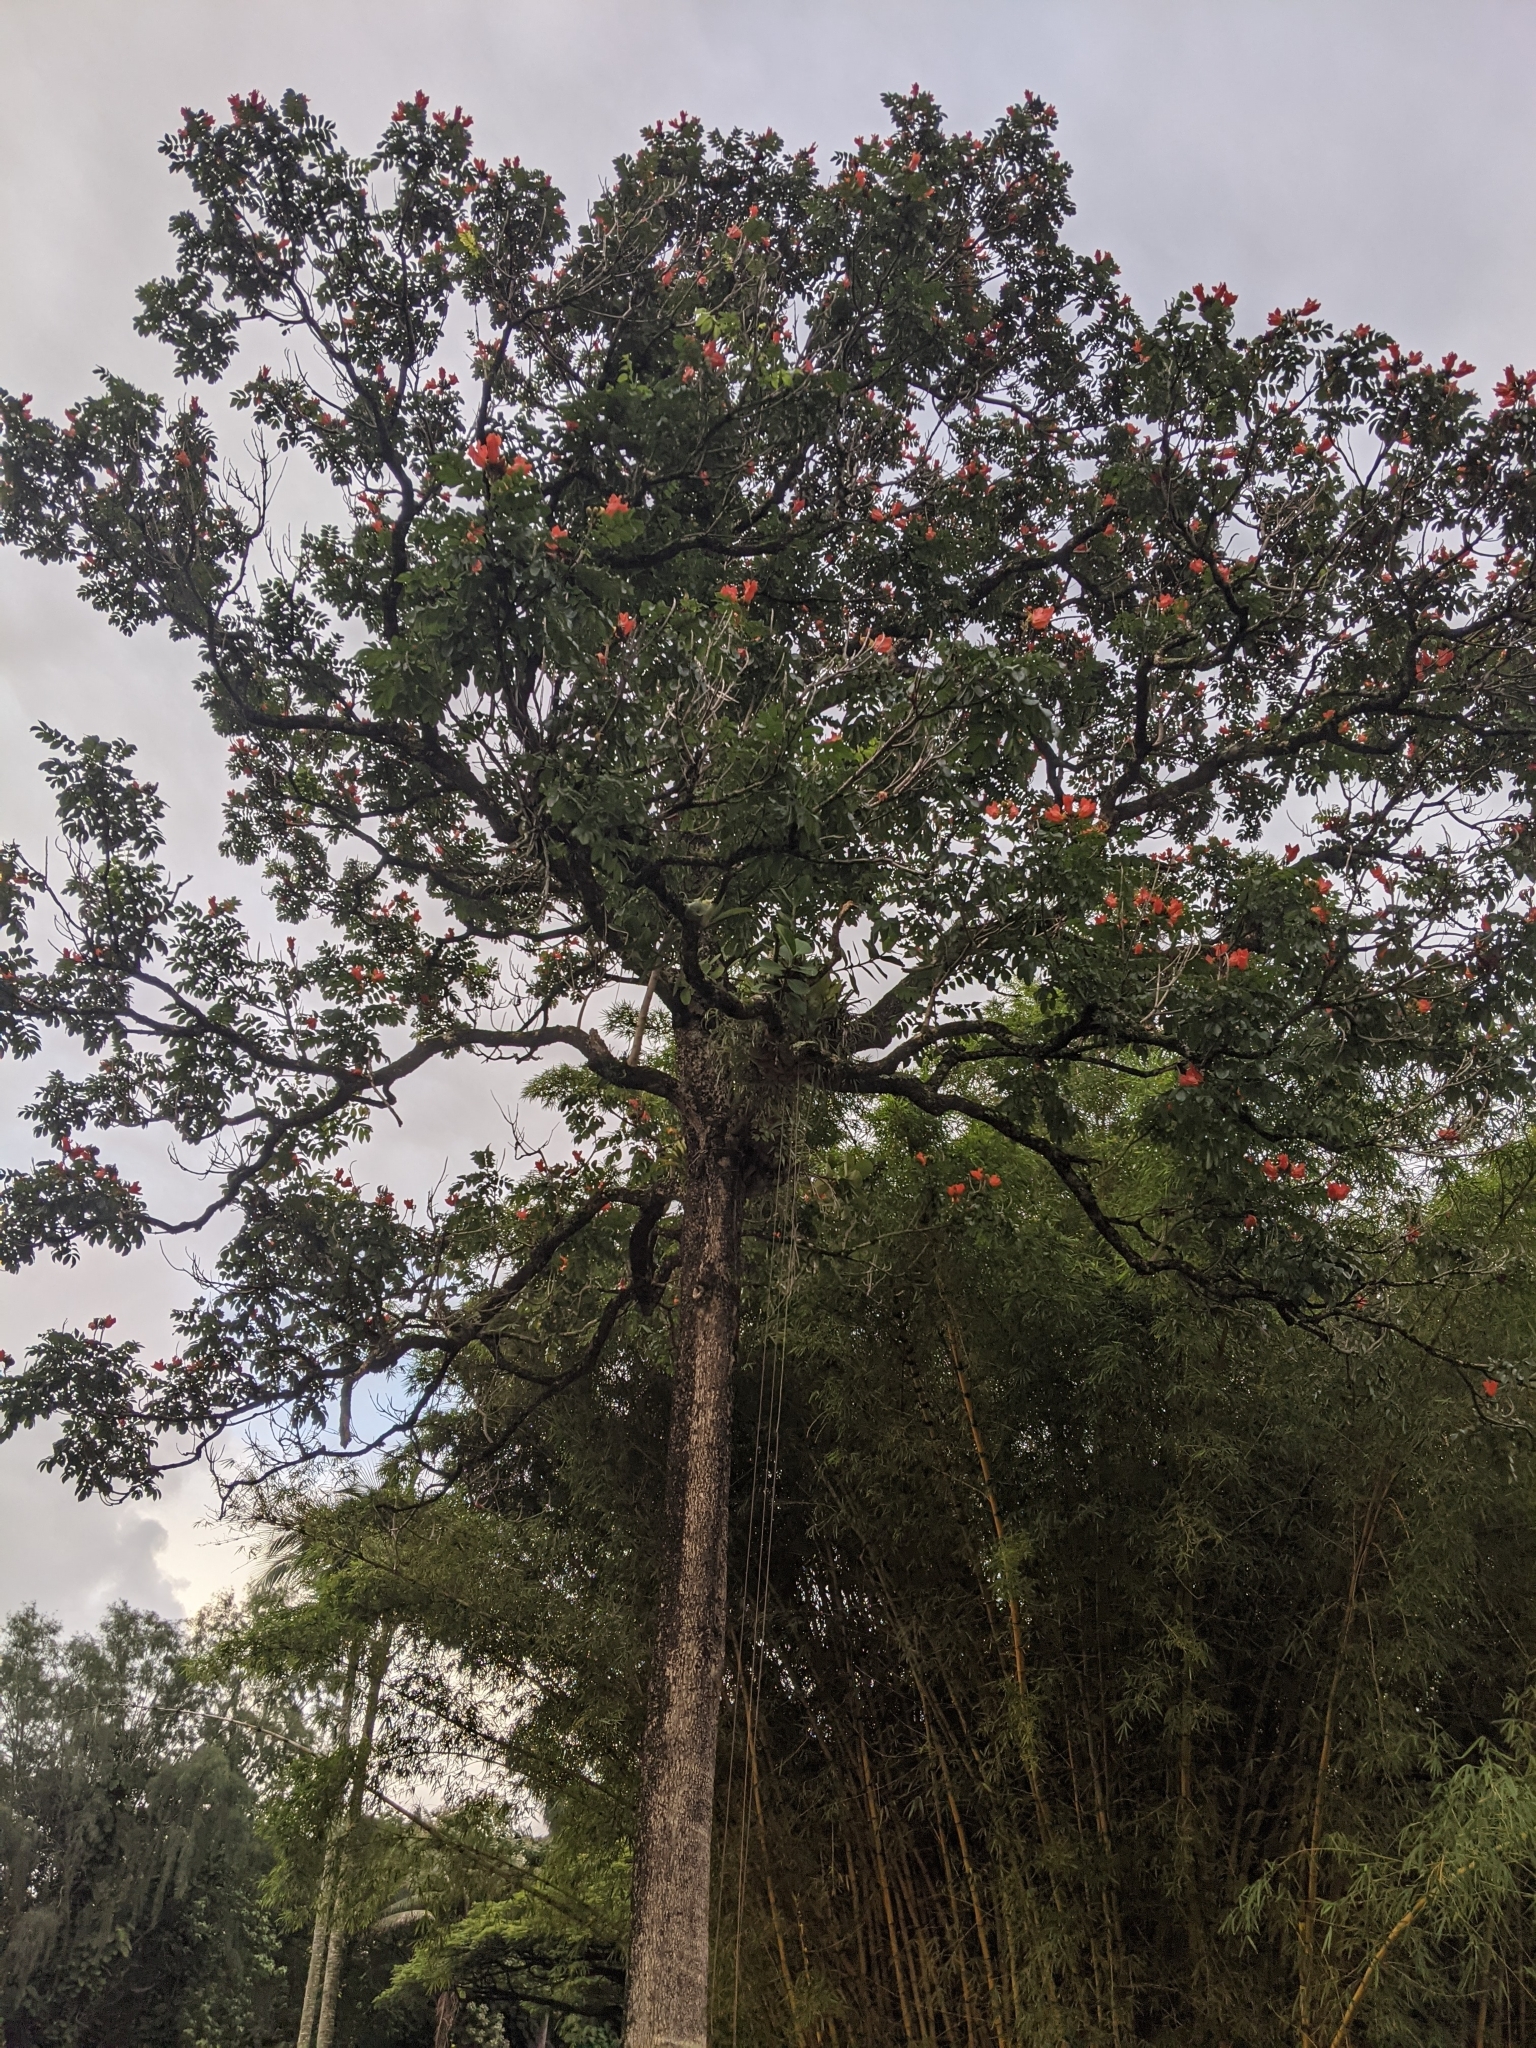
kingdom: Plantae
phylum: Tracheophyta
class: Magnoliopsida
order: Lamiales
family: Bignoniaceae
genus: Spathodea
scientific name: Spathodea campanulata
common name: African tuliptree
